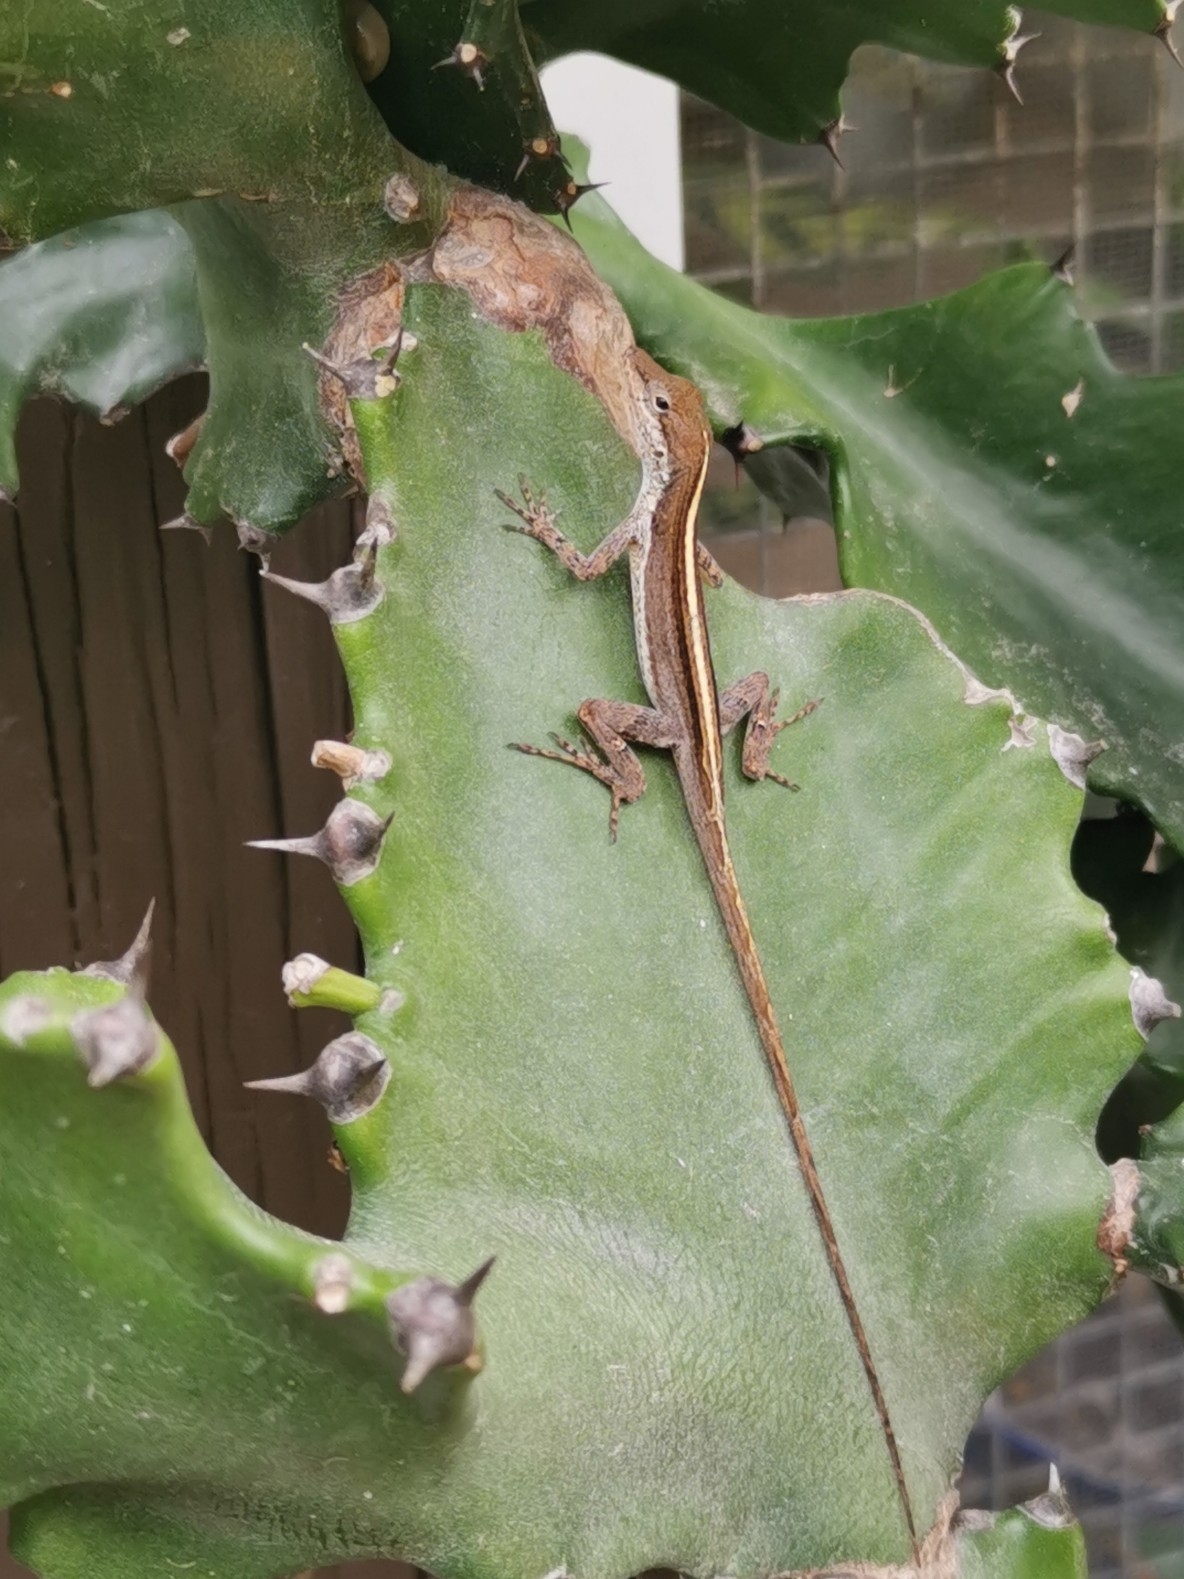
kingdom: Animalia
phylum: Chordata
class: Squamata
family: Dactyloidae
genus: Anolis
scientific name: Anolis scriptus
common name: Silver key anole
